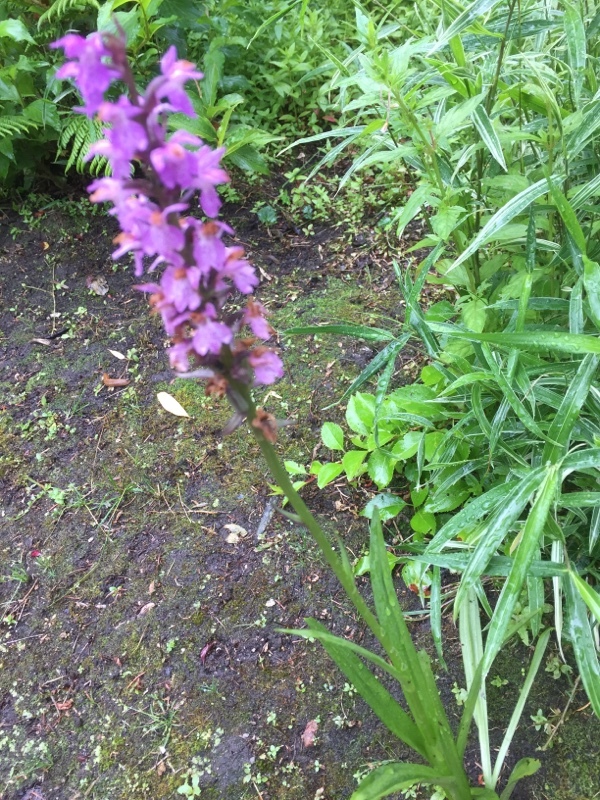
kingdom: Plantae
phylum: Tracheophyta
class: Liliopsida
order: Asparagales
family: Orchidaceae
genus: Dactylorhiza
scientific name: Dactylorhiza majalis
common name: Marsh orchid
